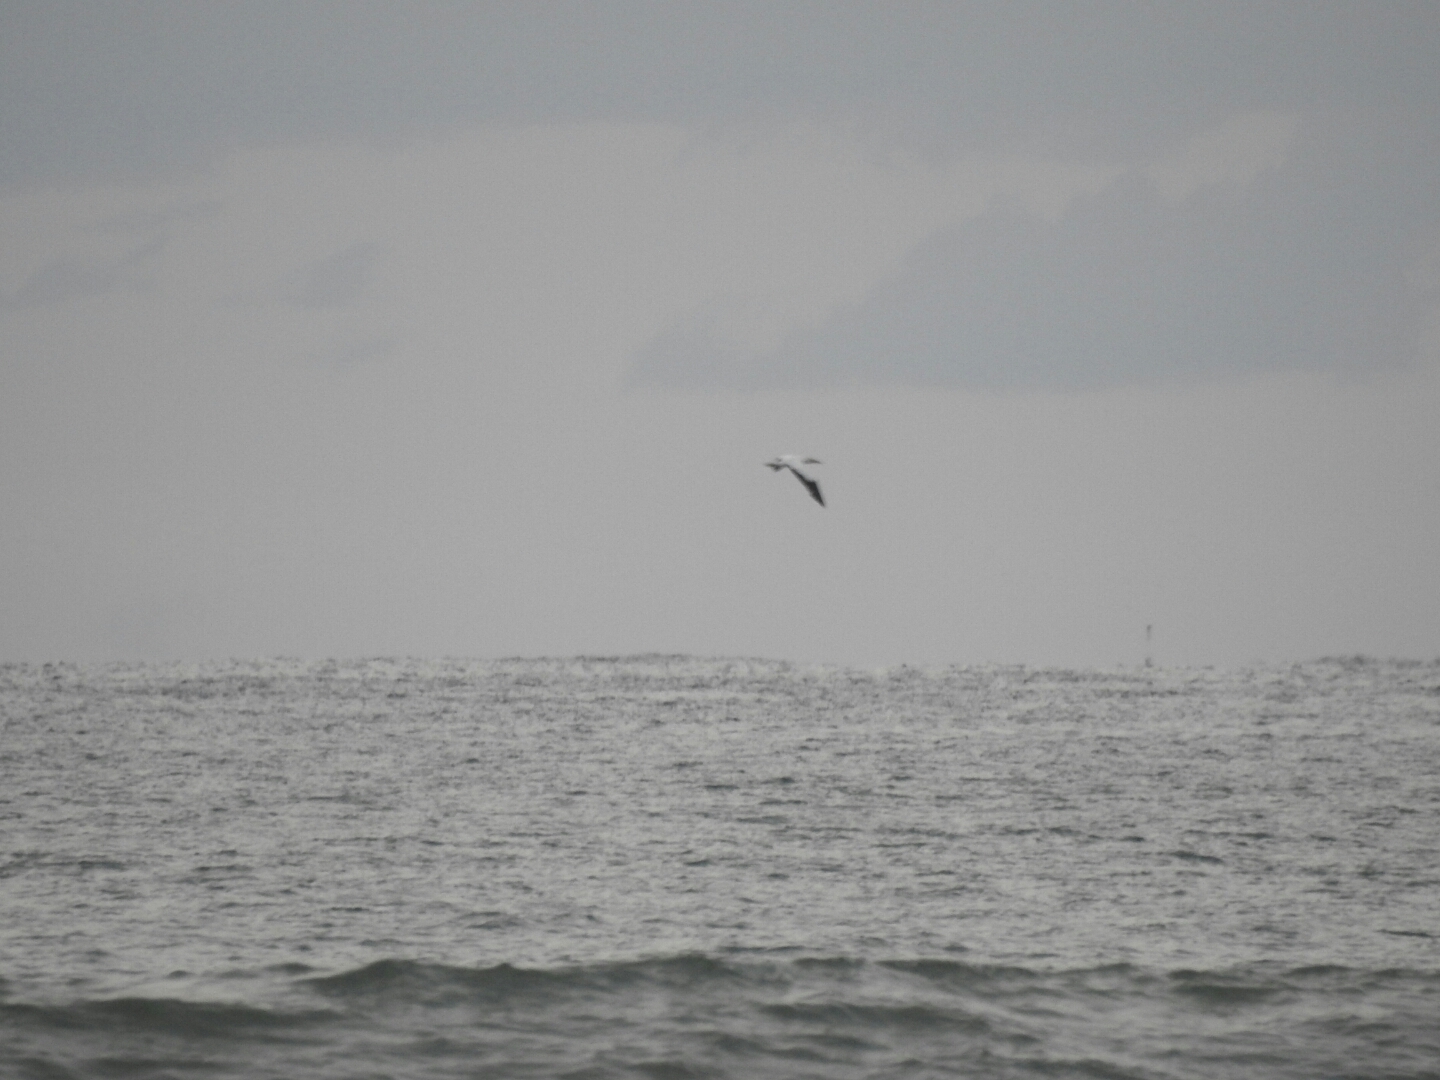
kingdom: Animalia
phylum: Chordata
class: Aves
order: Suliformes
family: Sulidae
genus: Morus
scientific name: Morus serrator
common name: Australasian gannet
